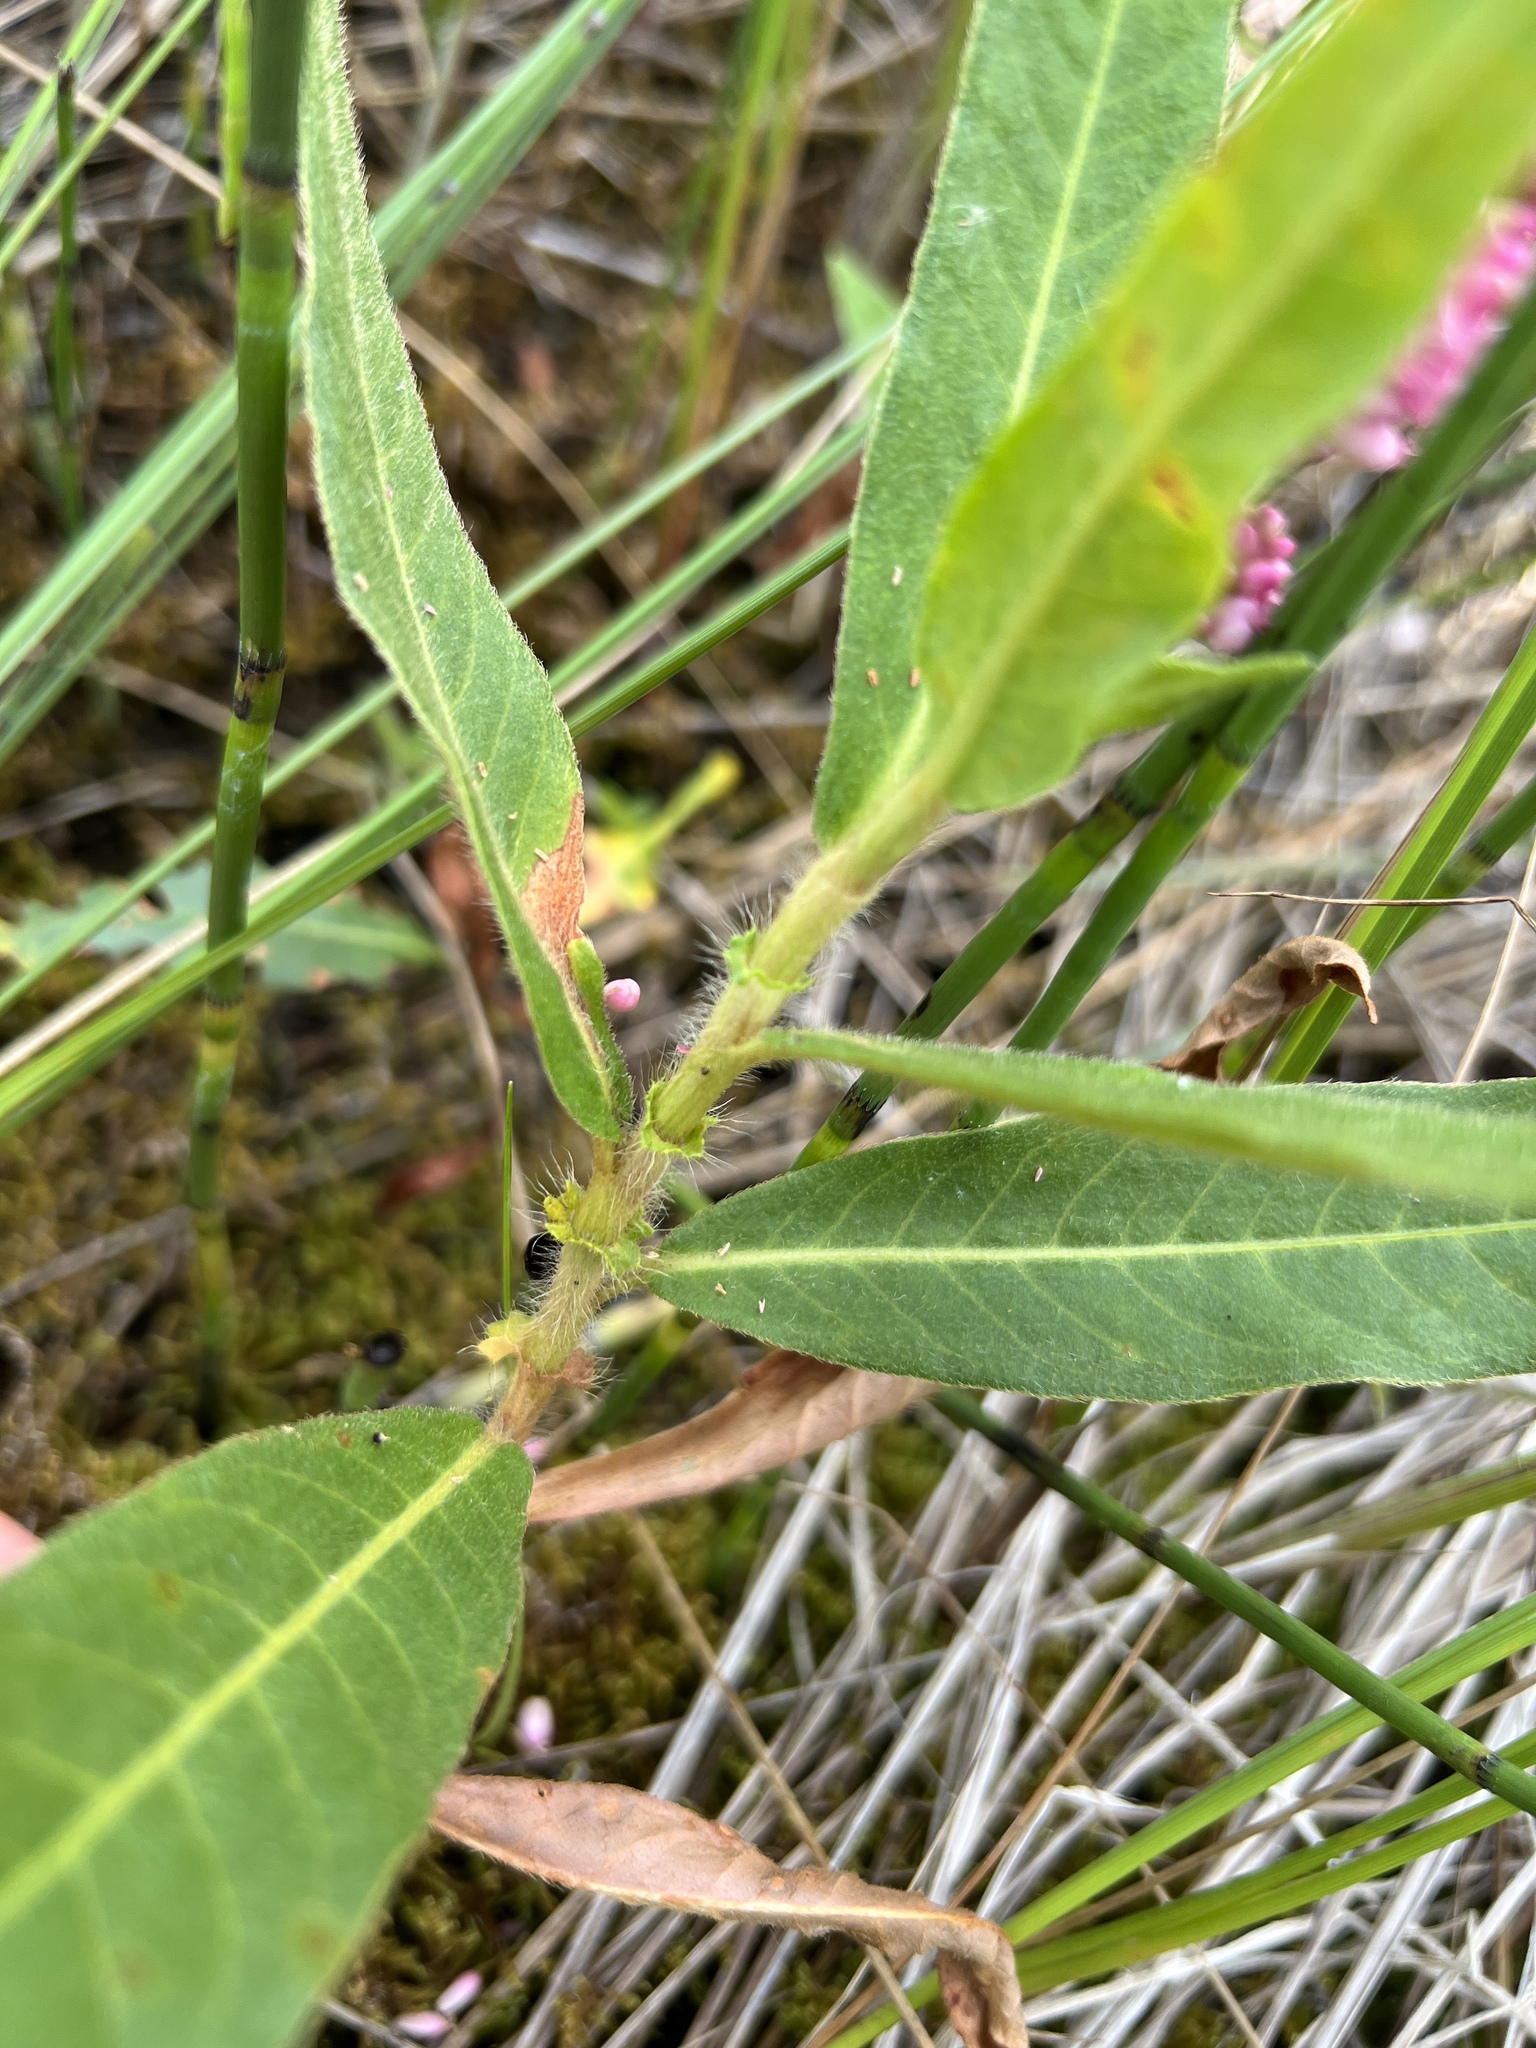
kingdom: Plantae
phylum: Tracheophyta
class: Magnoliopsida
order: Caryophyllales
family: Polygonaceae
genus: Persicaria
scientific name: Persicaria amphibia
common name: Amphibious bistort
